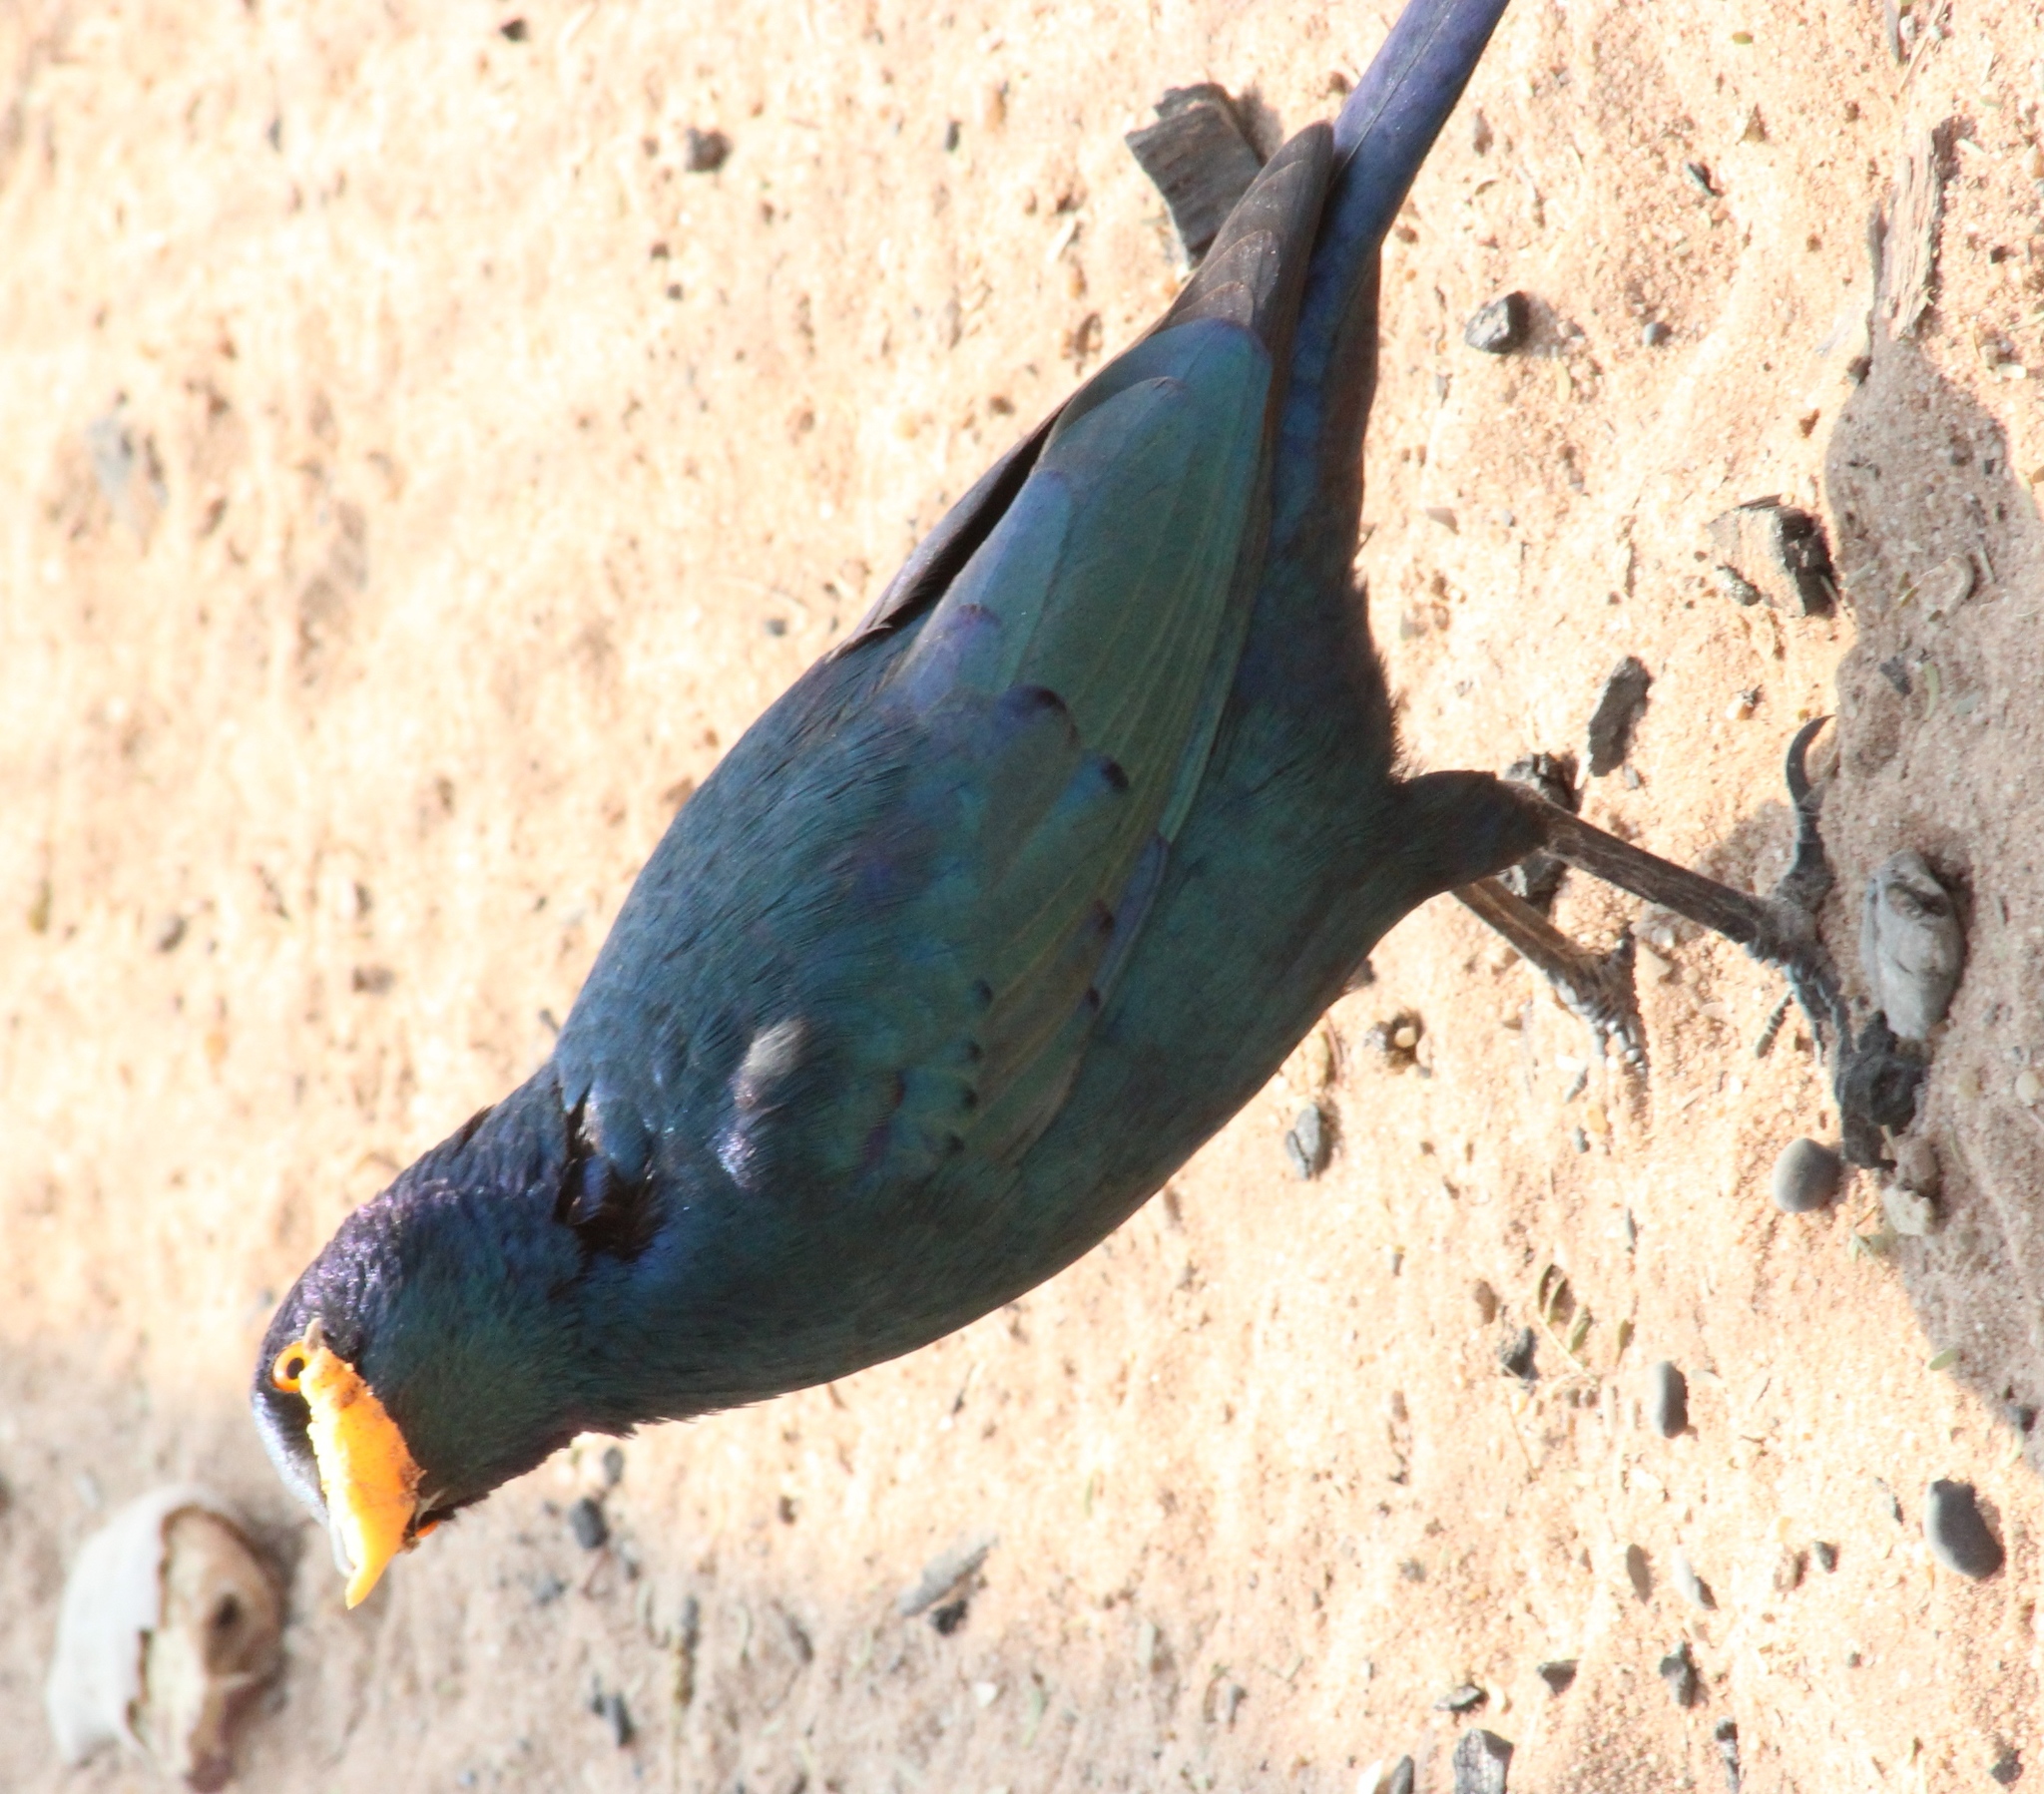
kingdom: Animalia
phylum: Chordata
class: Aves
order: Passeriformes
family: Sturnidae
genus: Lamprotornis
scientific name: Lamprotornis nitens
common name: Cape starling
